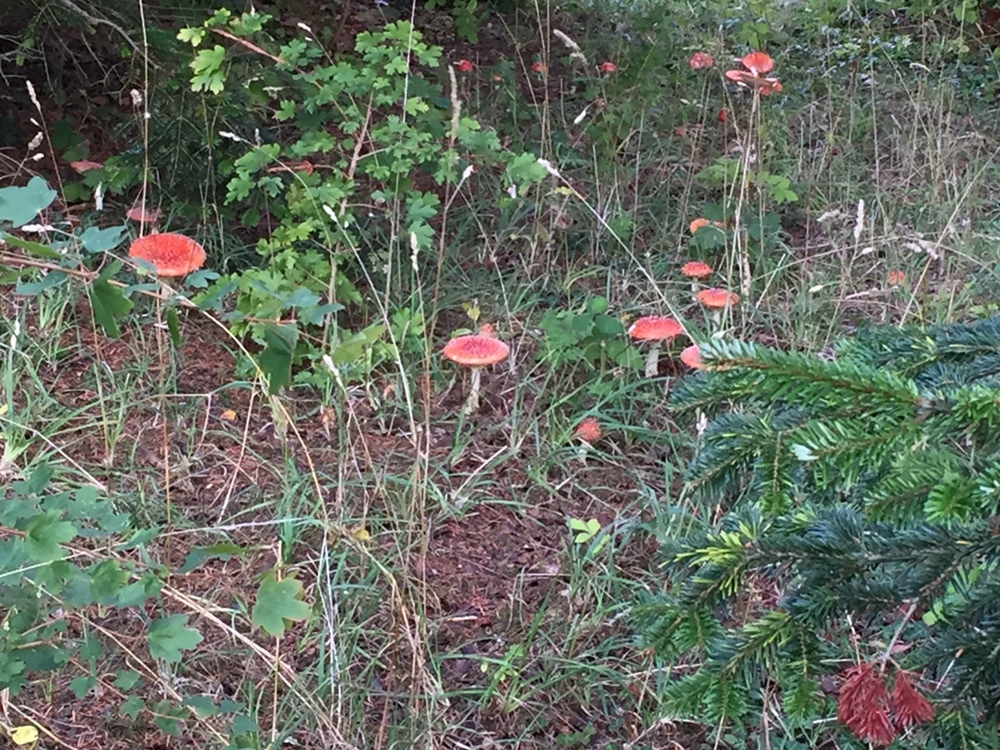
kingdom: Fungi
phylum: Basidiomycota
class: Agaricomycetes
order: Agaricales
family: Amanitaceae
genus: Amanita
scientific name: Amanita muscaria
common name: Fly agaric
